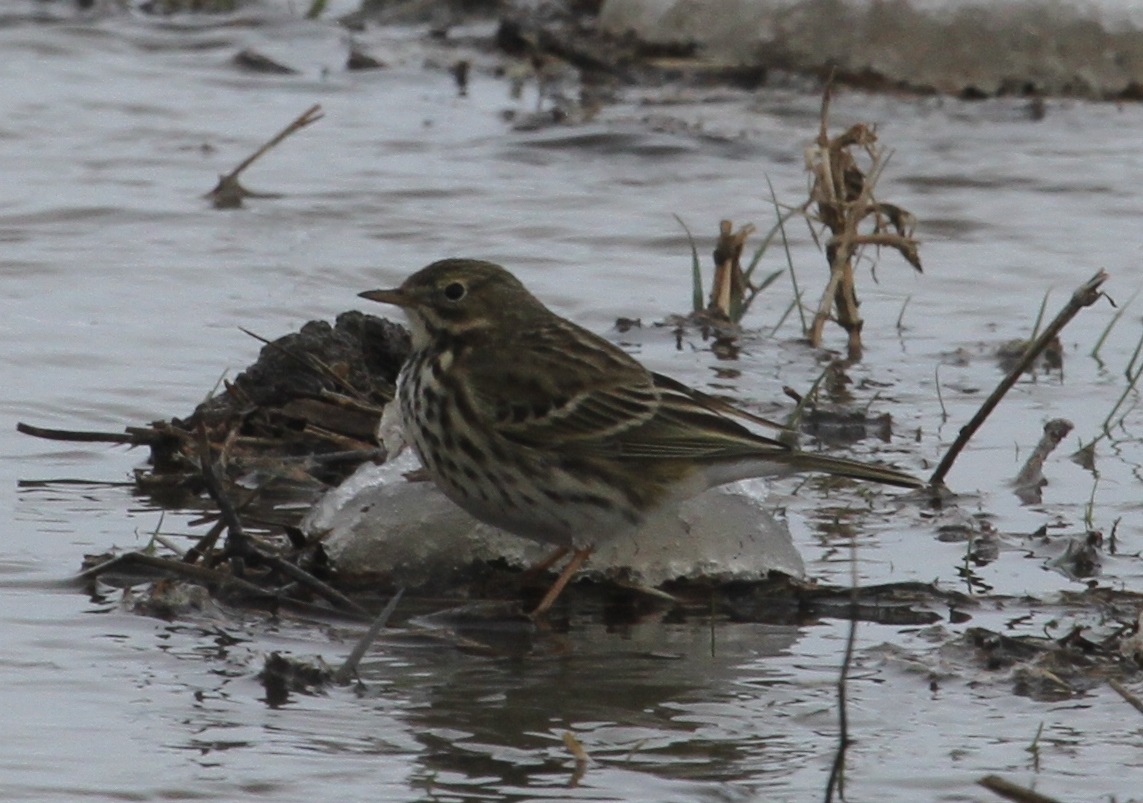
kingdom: Animalia
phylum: Chordata
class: Aves
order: Passeriformes
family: Motacillidae
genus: Anthus
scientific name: Anthus pratensis
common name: Meadow pipit
